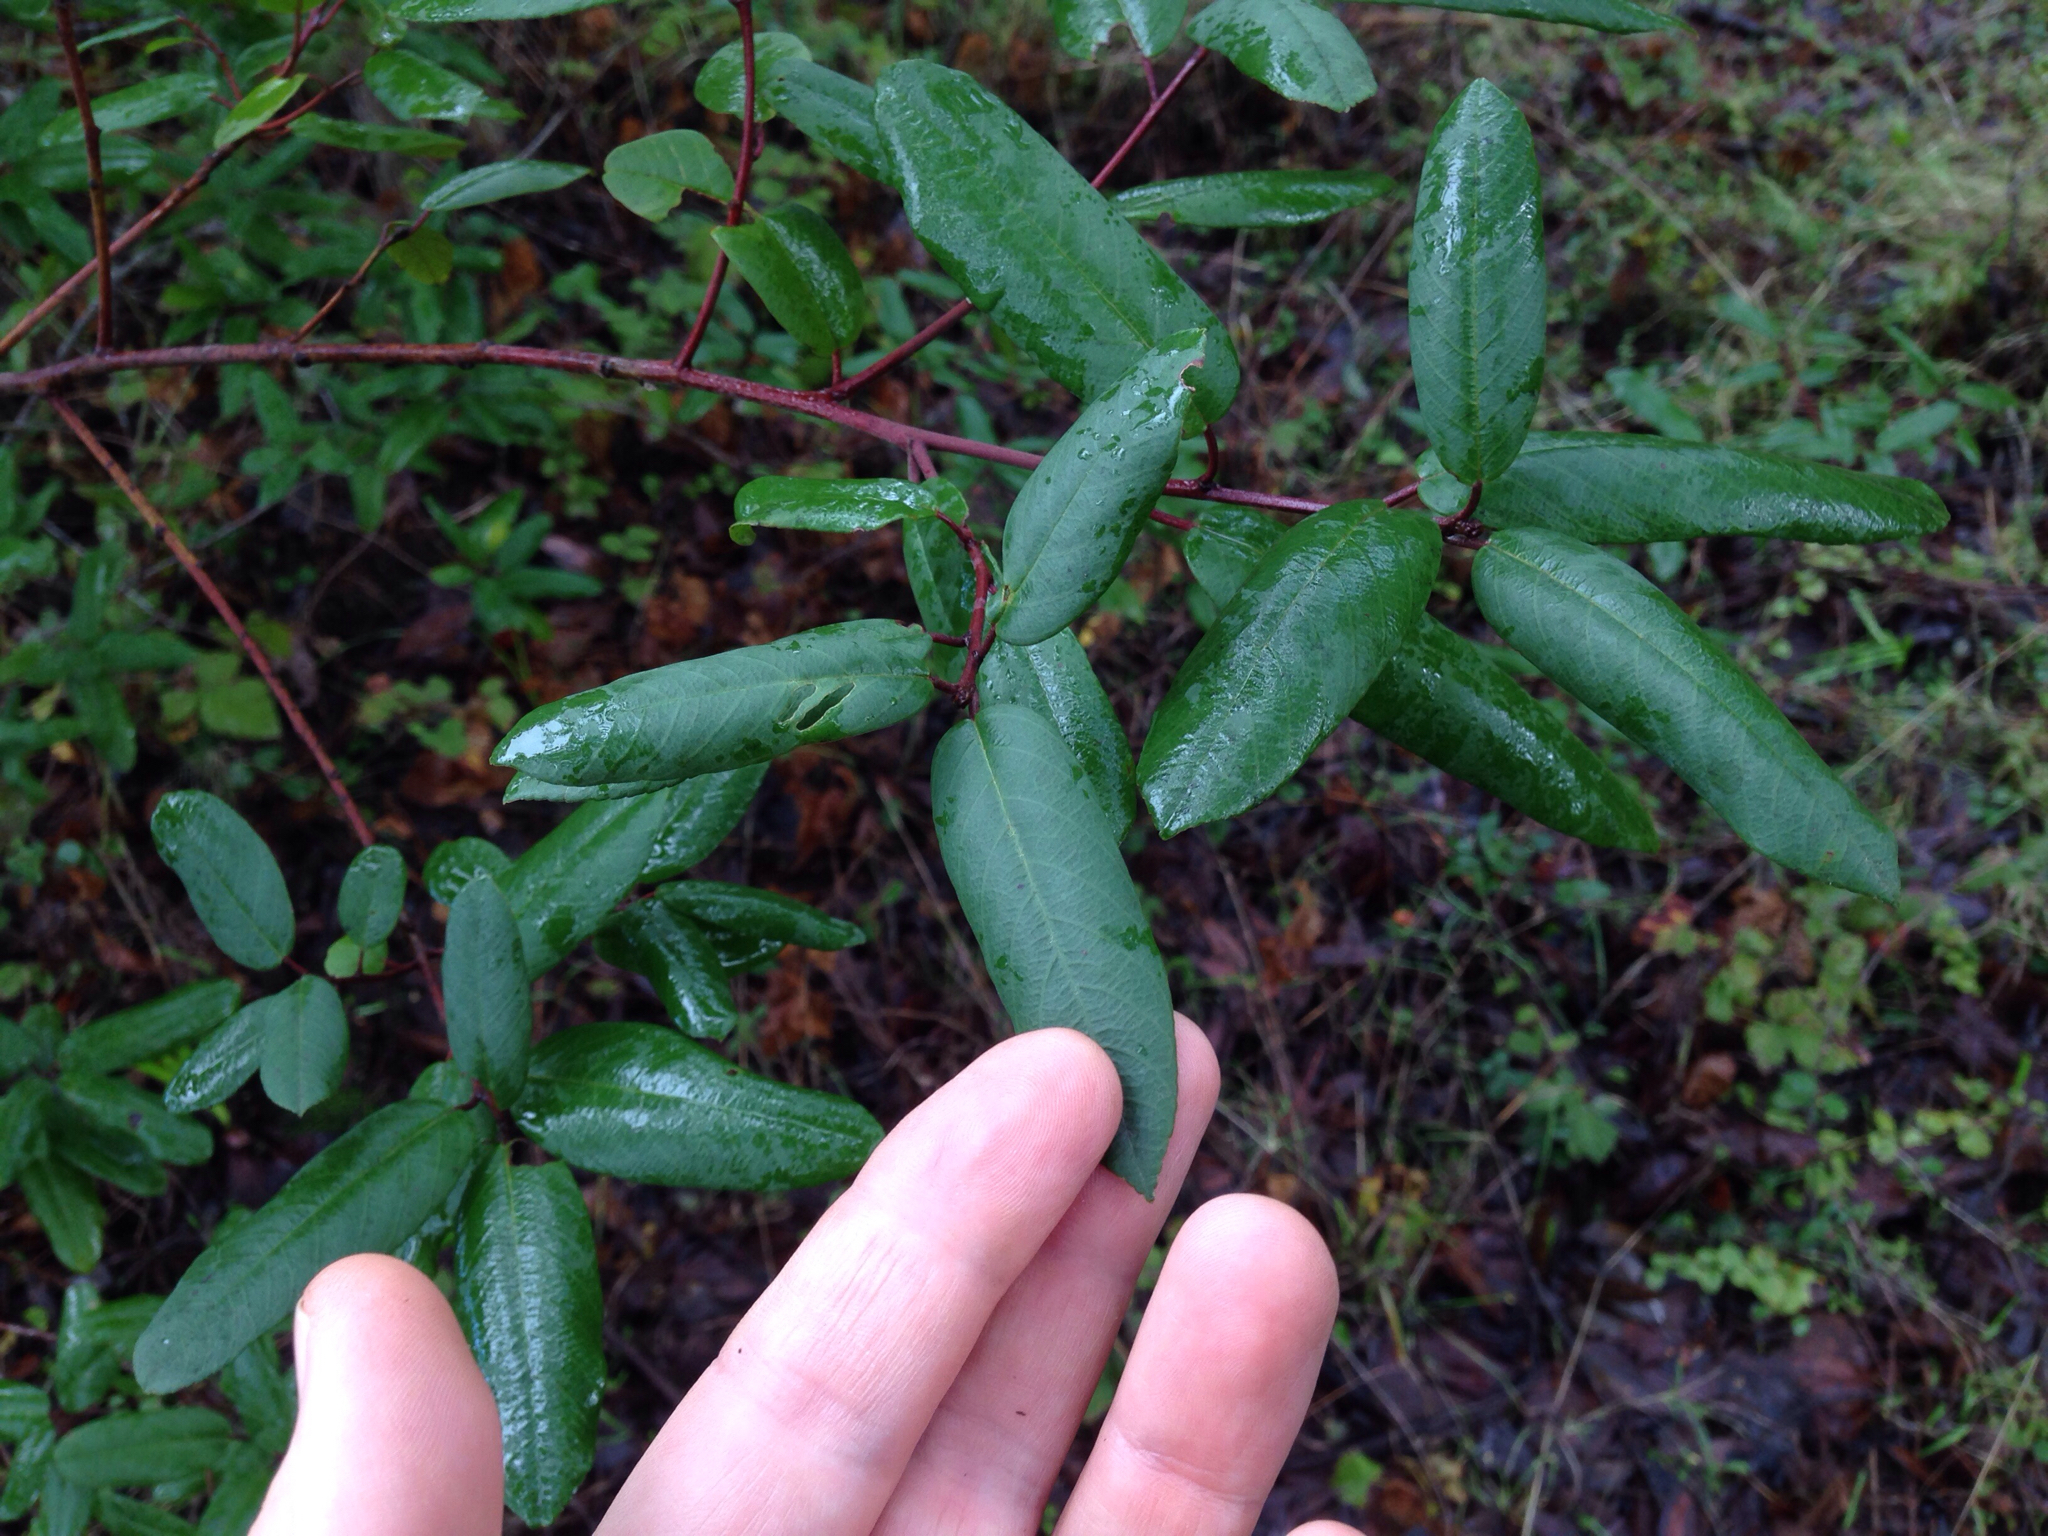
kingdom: Plantae
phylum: Tracheophyta
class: Magnoliopsida
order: Rosales
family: Rhamnaceae
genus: Frangula
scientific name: Frangula californica
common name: California buckthorn
